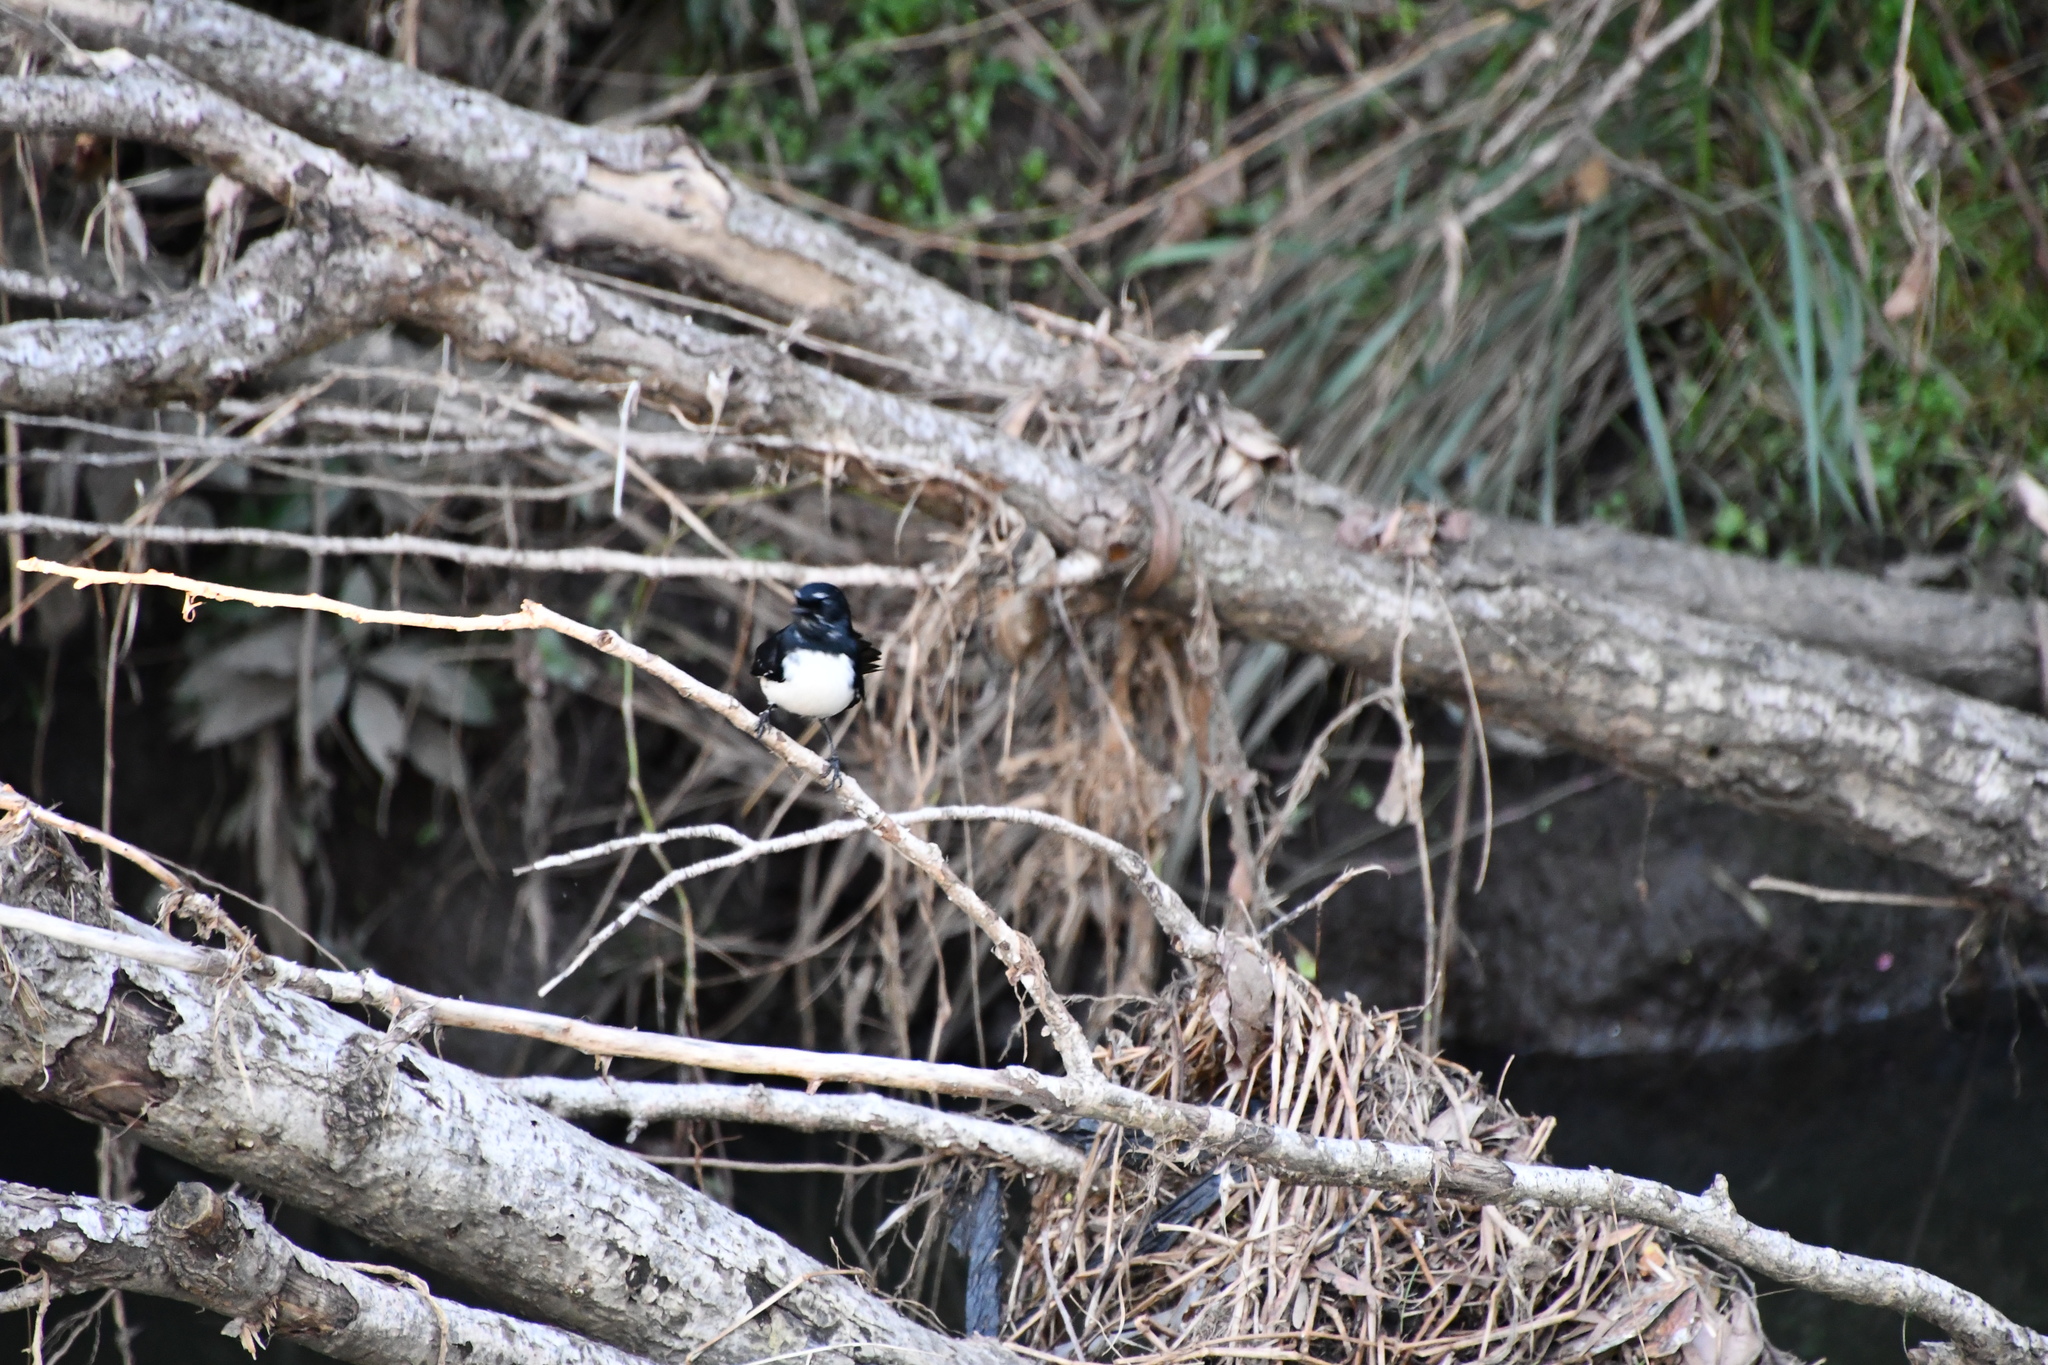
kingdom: Animalia
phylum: Chordata
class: Aves
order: Passeriformes
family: Rhipiduridae
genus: Rhipidura
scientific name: Rhipidura leucophrys
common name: Willie wagtail
